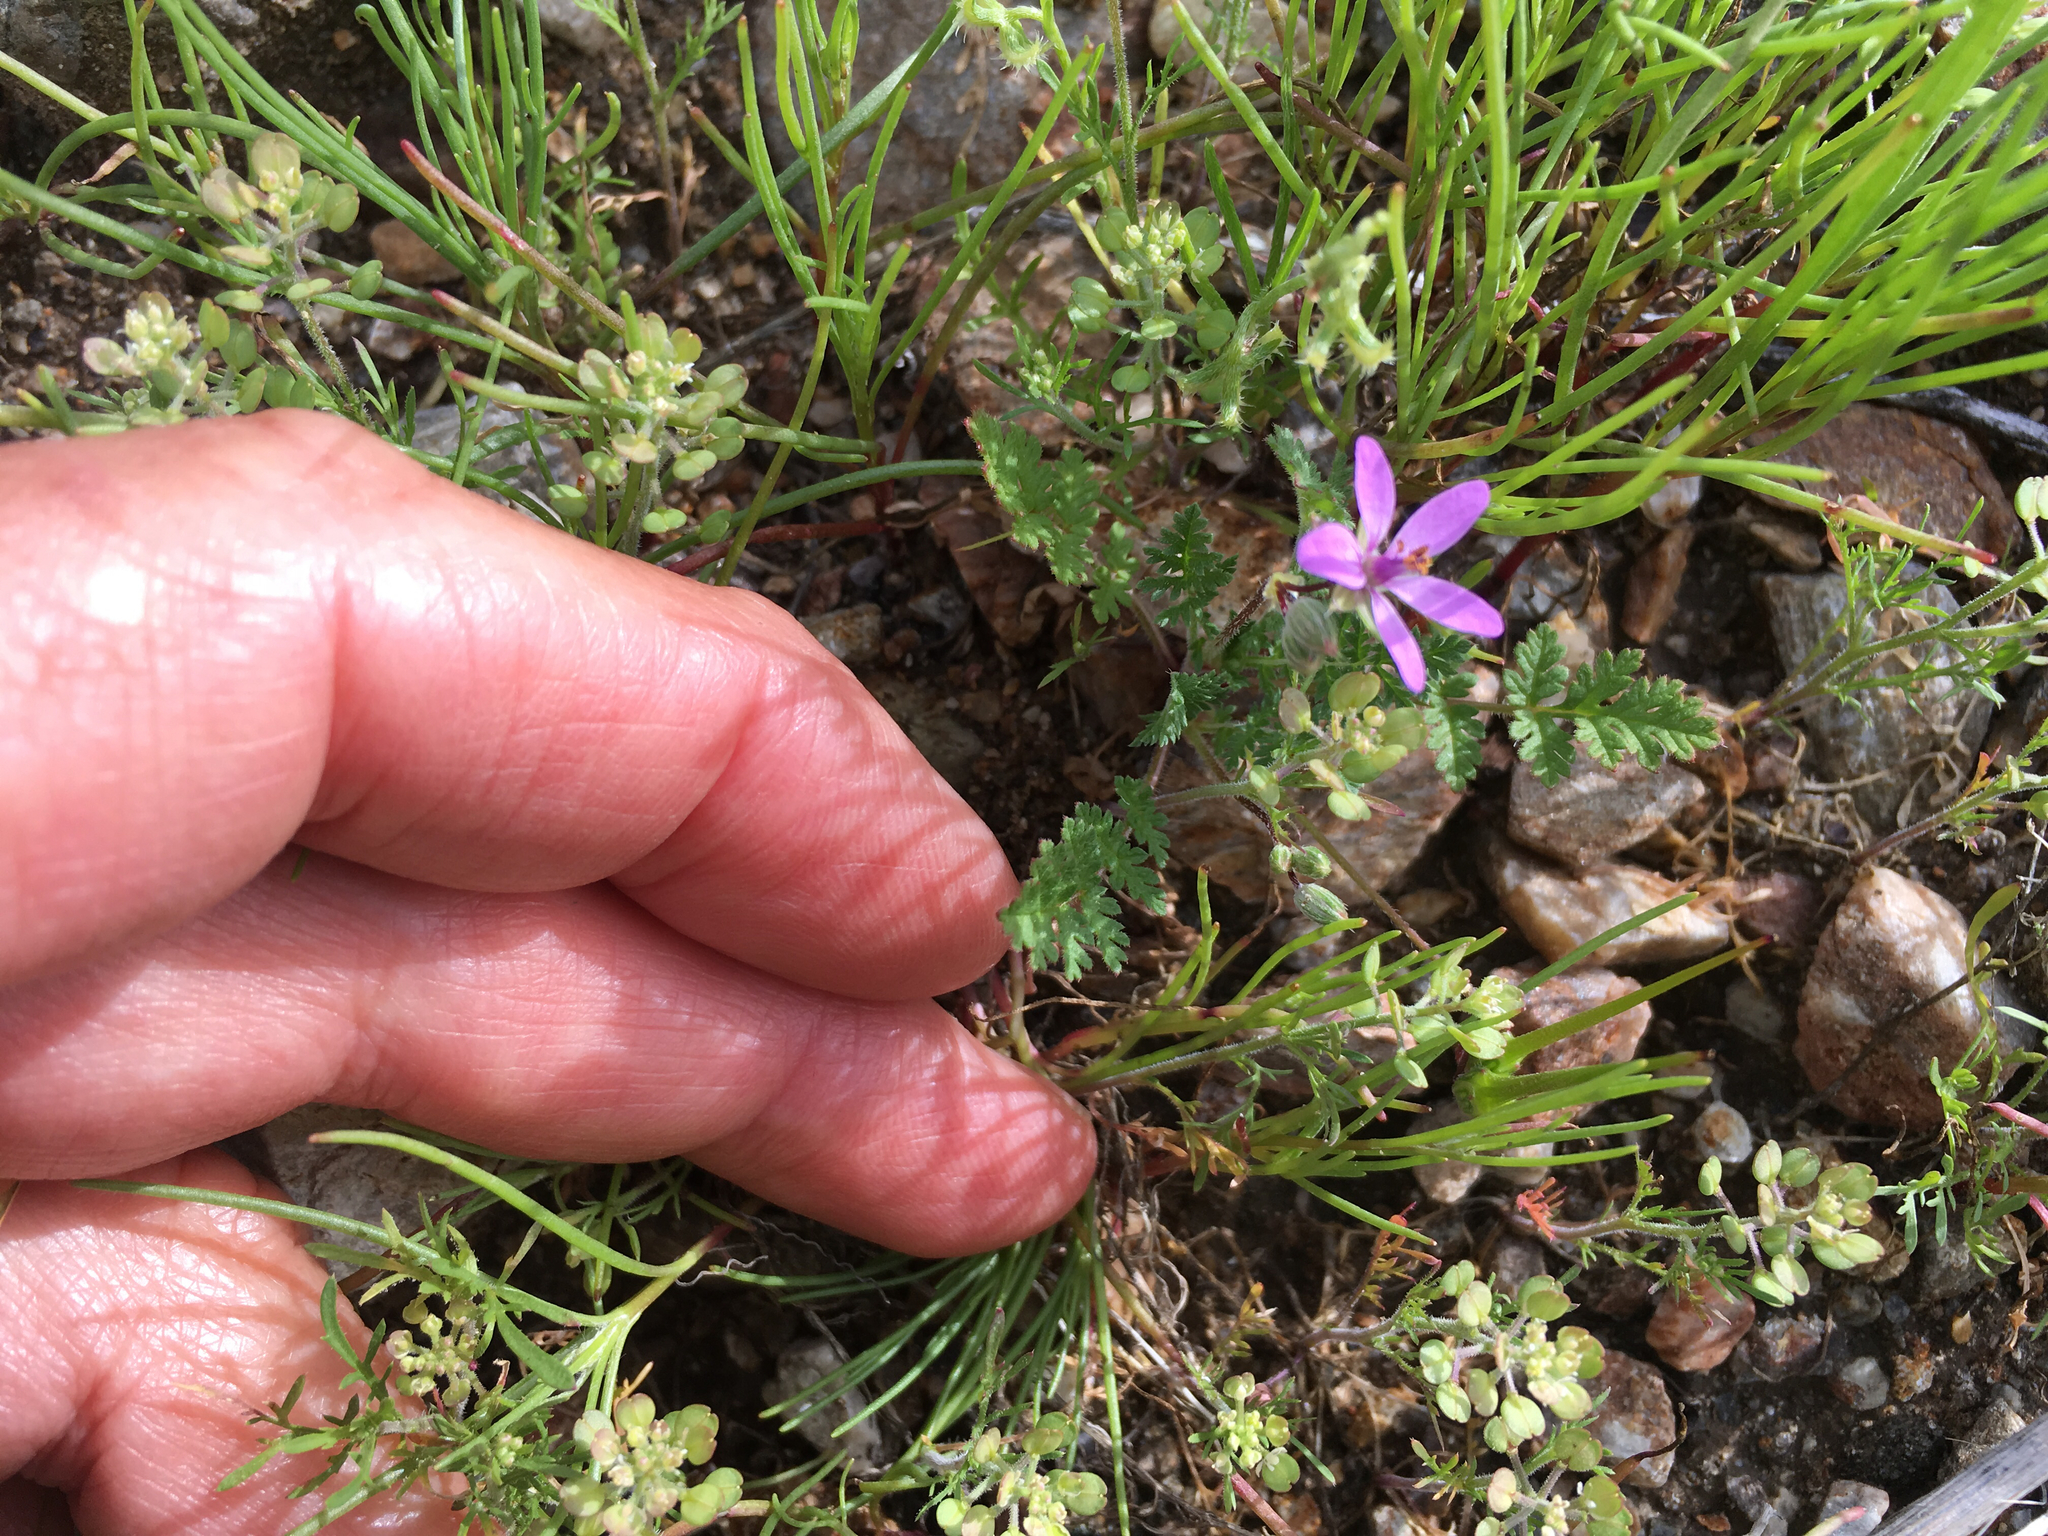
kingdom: Plantae
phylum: Tracheophyta
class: Magnoliopsida
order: Geraniales
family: Geraniaceae
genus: Erodium
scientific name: Erodium cicutarium
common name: Common stork's-bill
